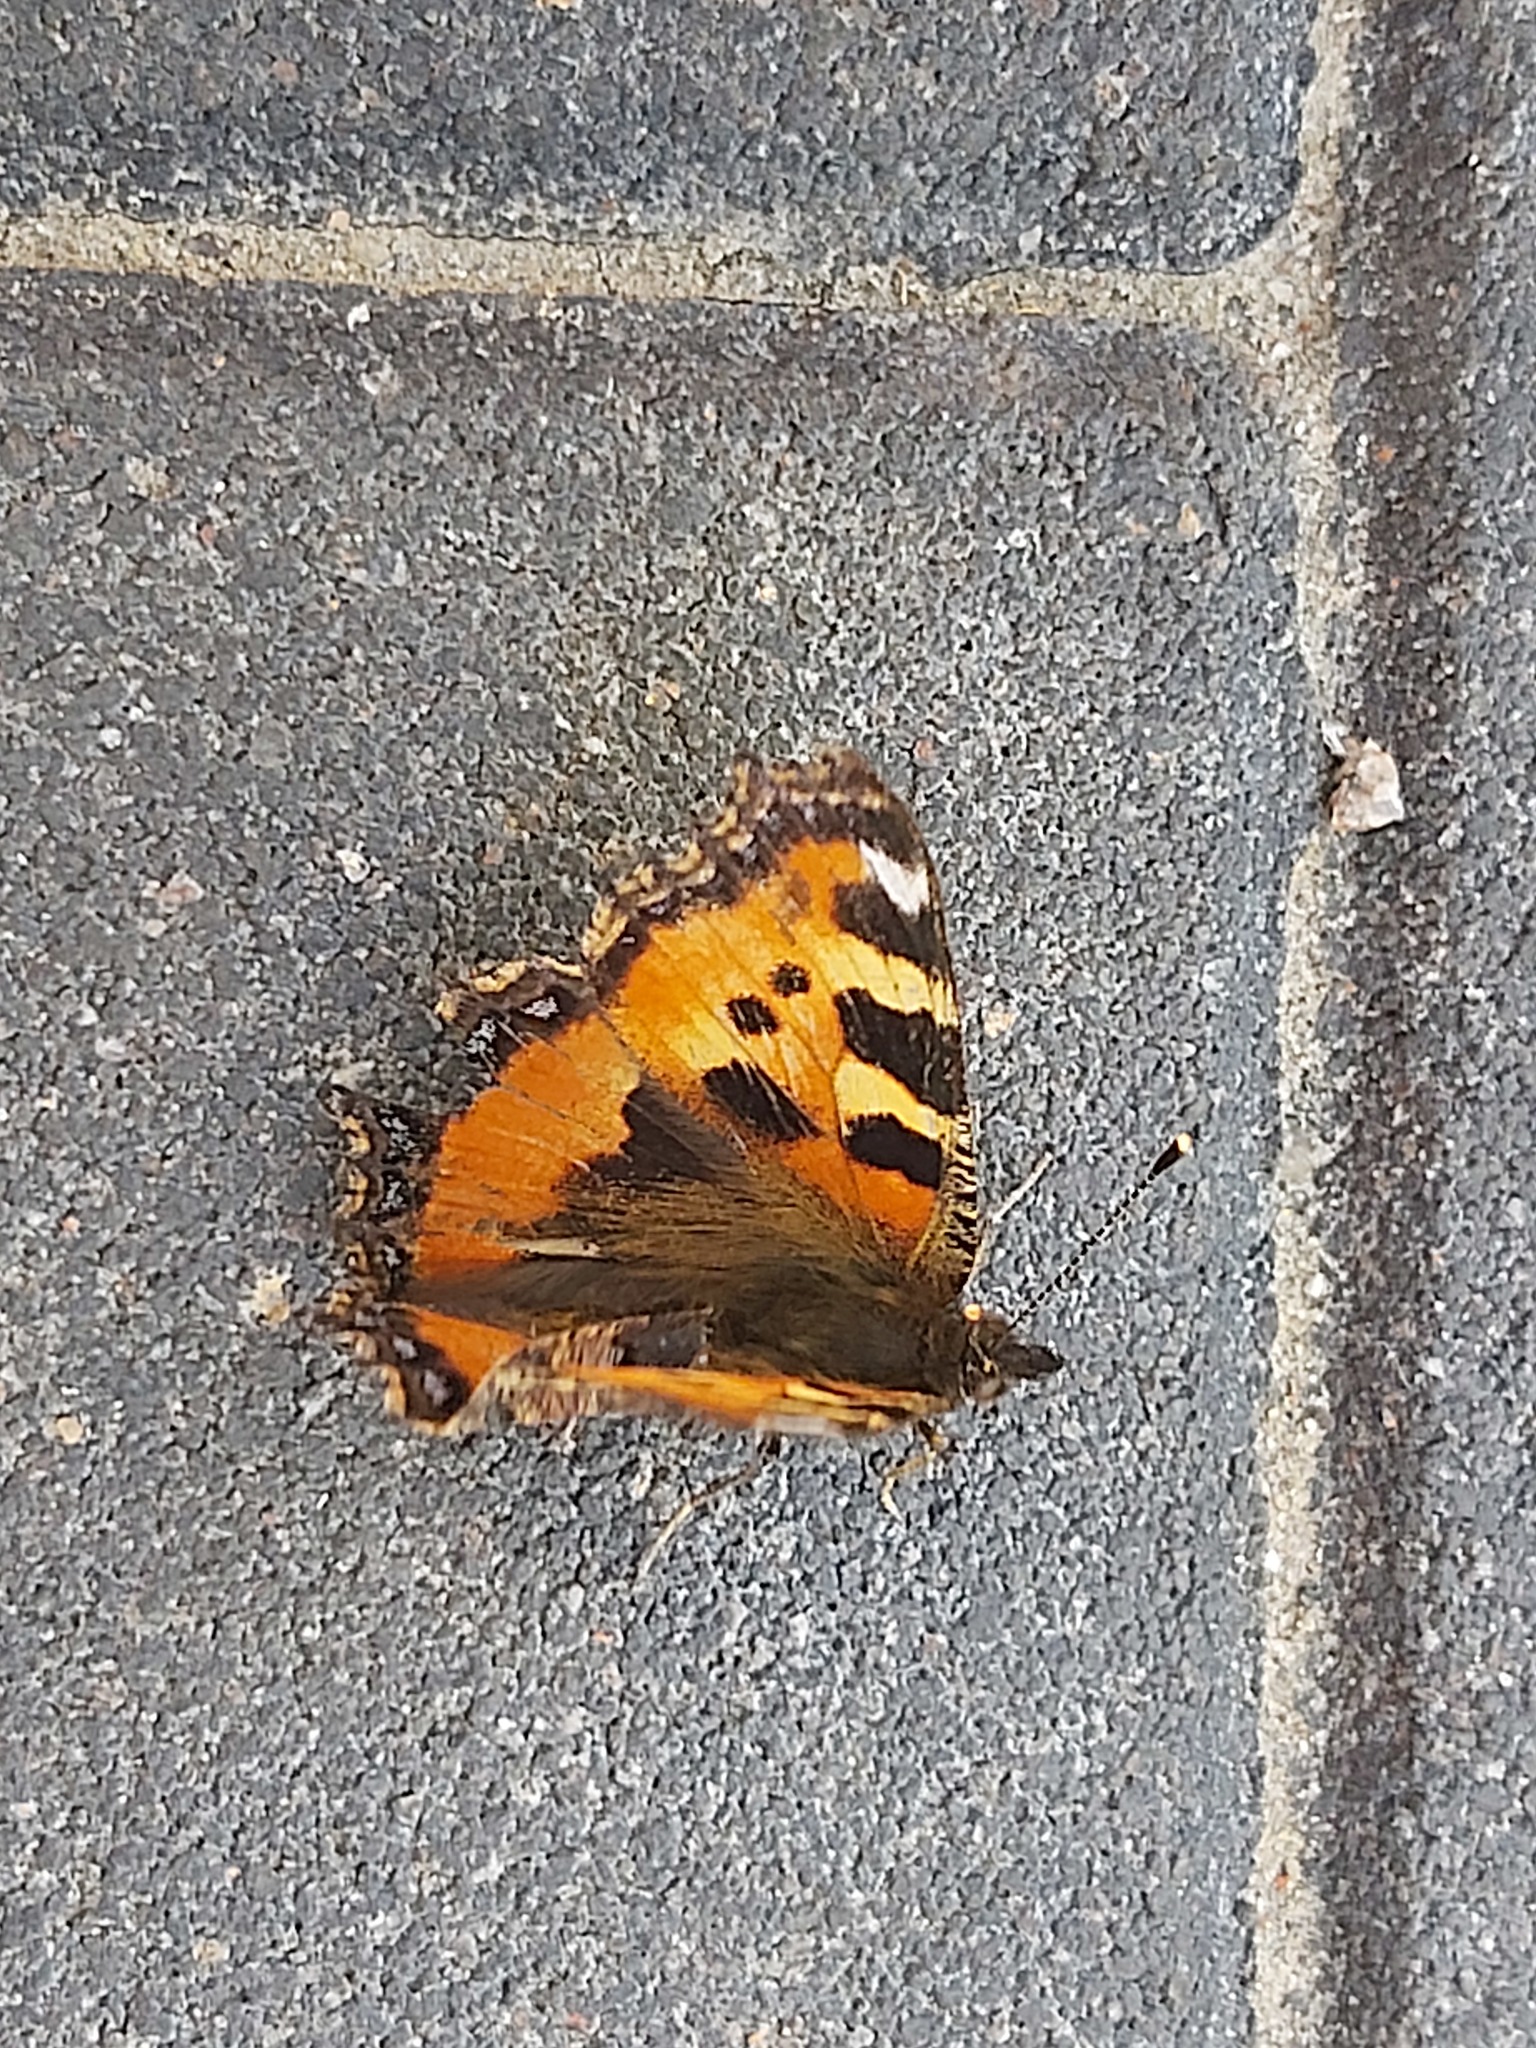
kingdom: Animalia
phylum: Arthropoda
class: Insecta
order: Lepidoptera
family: Nymphalidae
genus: Aglais
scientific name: Aglais urticae
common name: Small tortoiseshell
